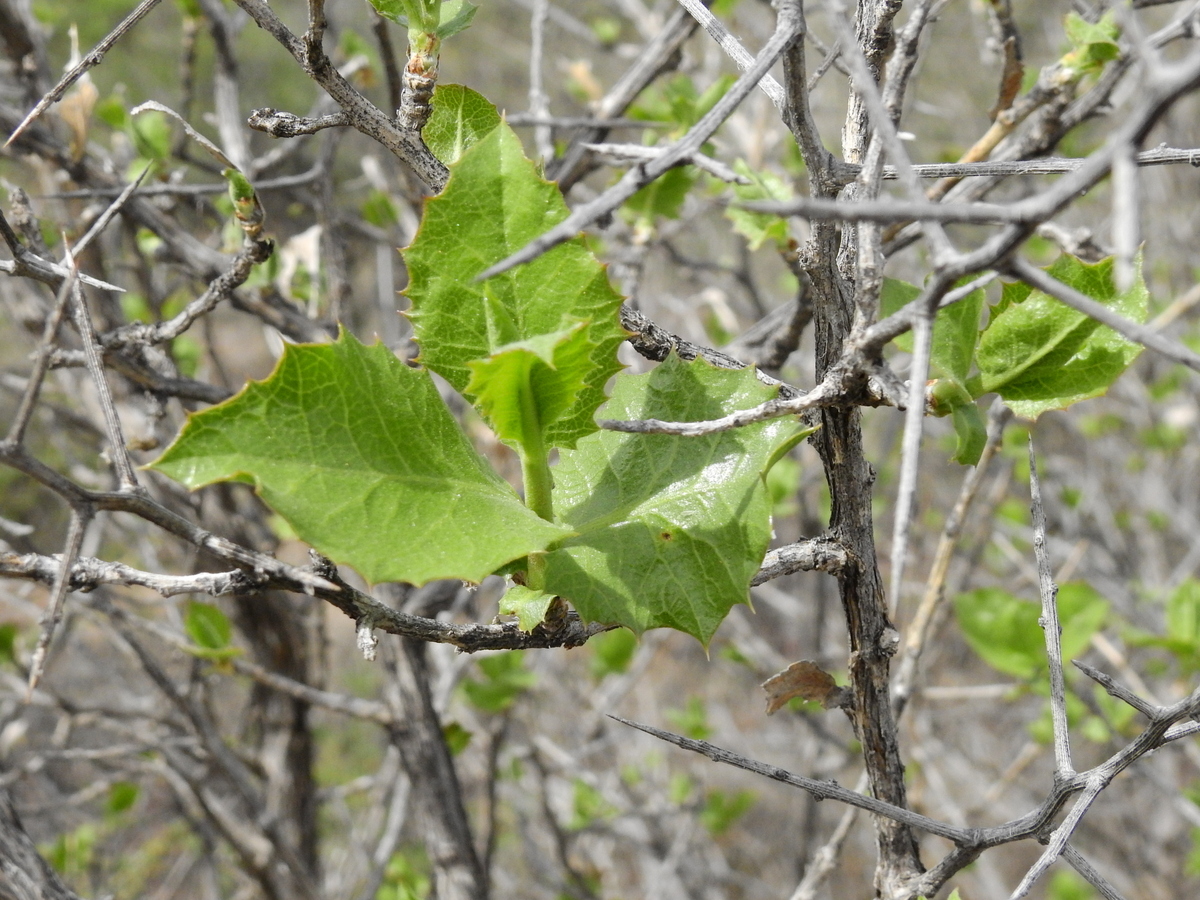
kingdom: Plantae
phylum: Tracheophyta
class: Magnoliopsida
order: Asterales
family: Asteraceae
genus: Proustia
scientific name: Proustia cuneifolia
